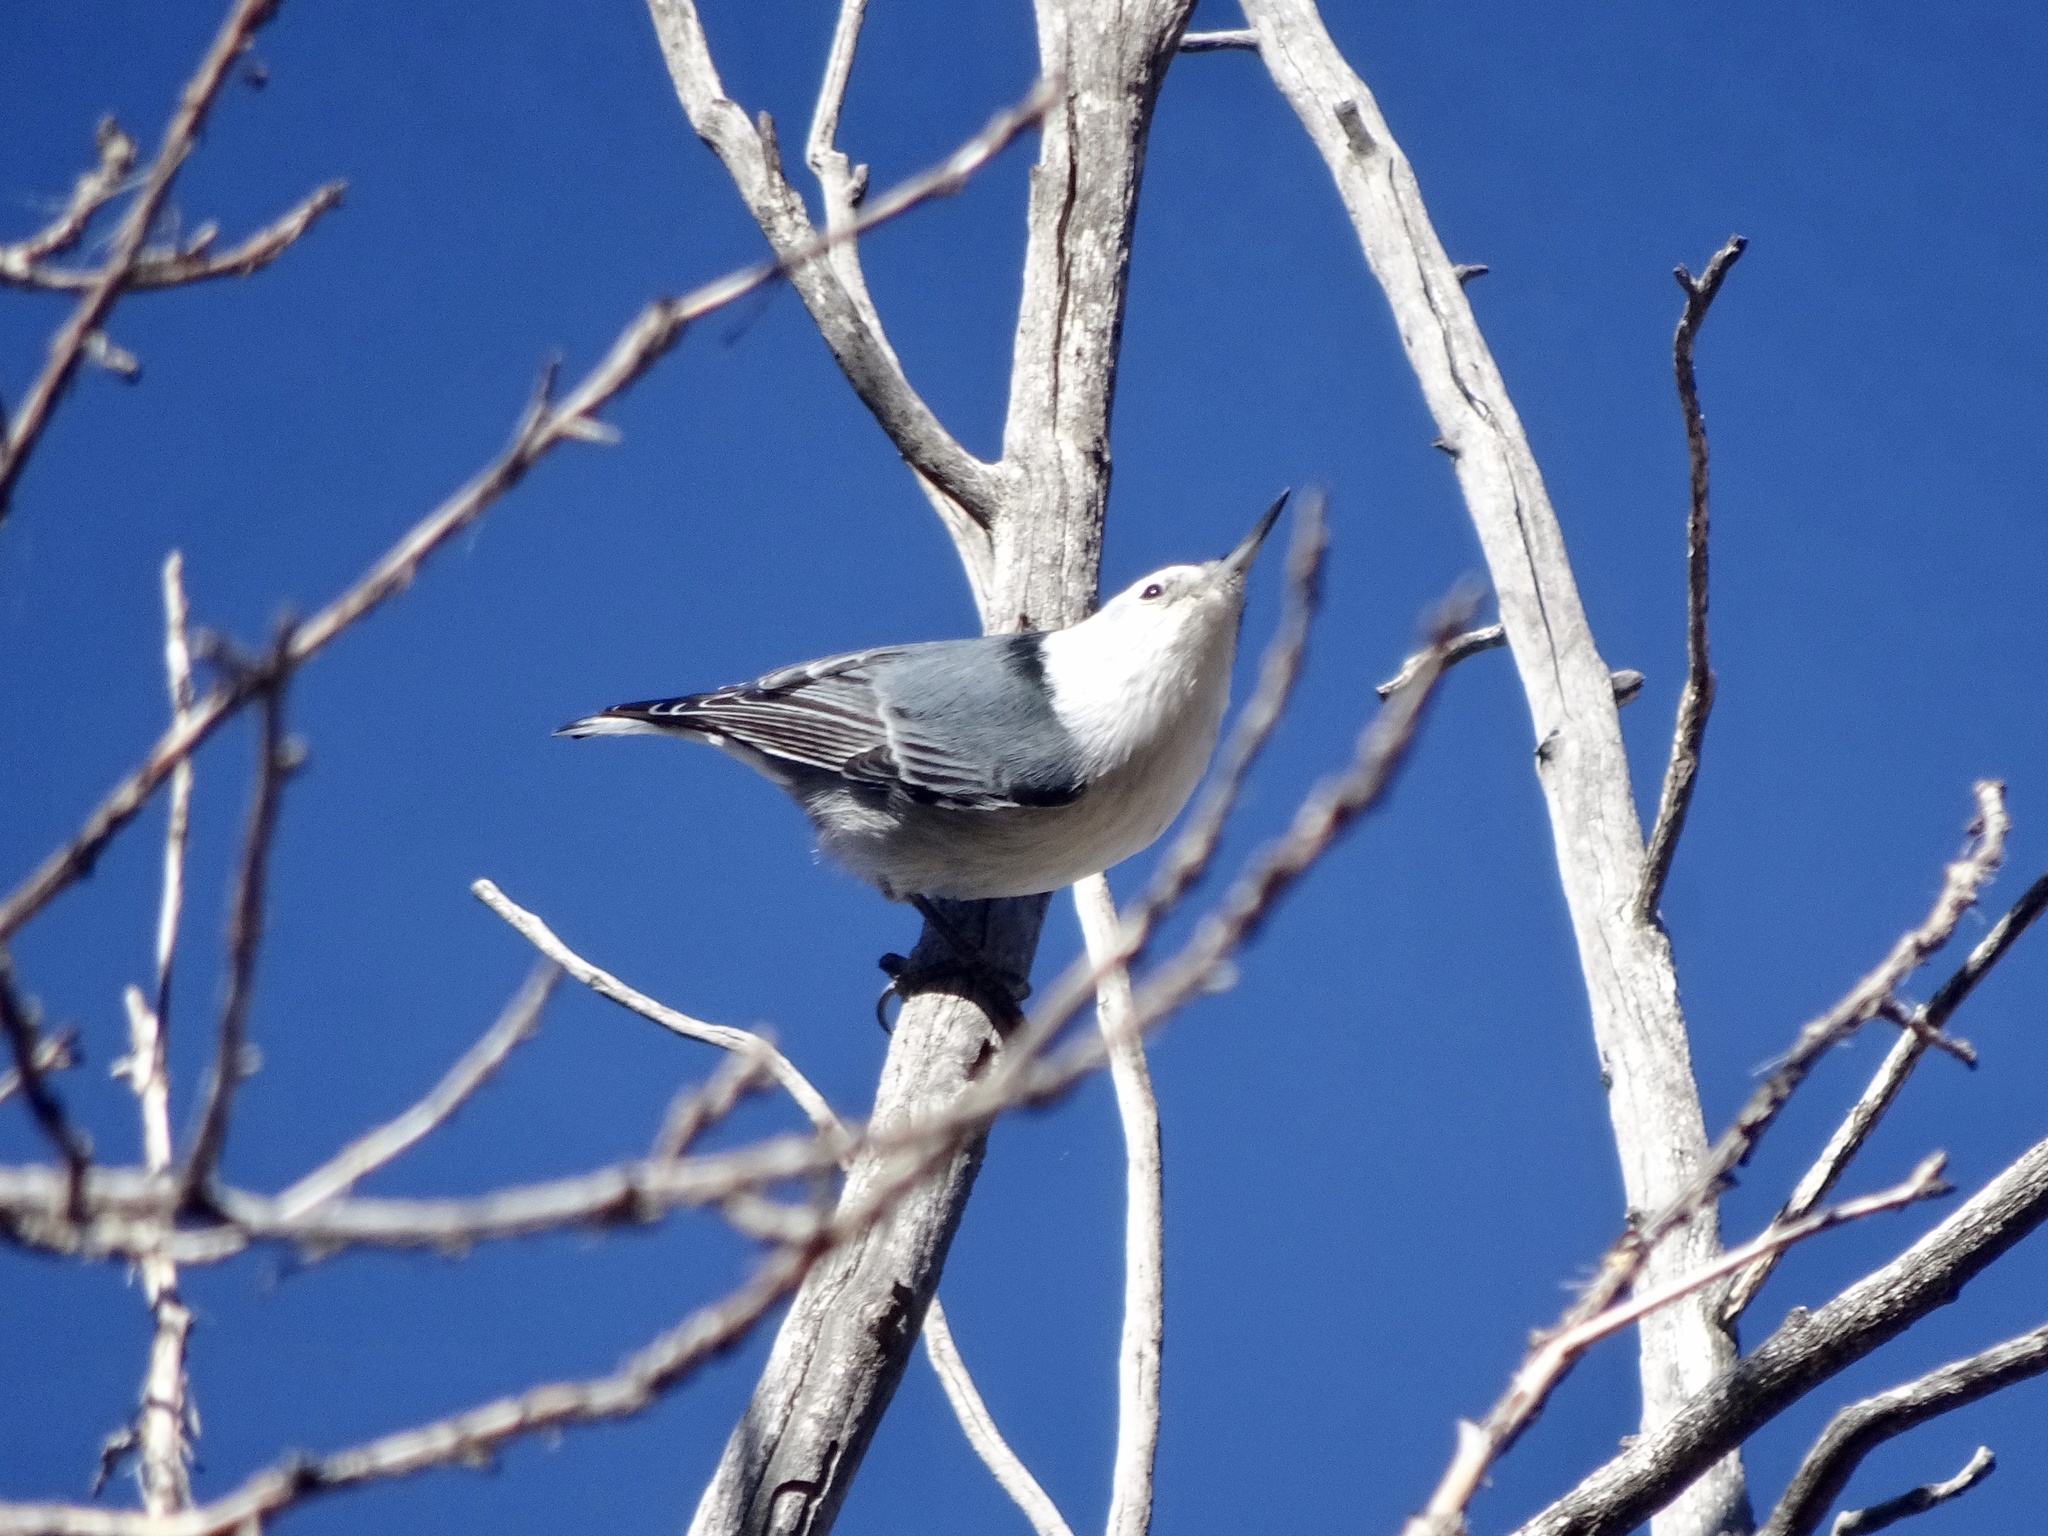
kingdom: Animalia
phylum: Chordata
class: Aves
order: Passeriformes
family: Sittidae
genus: Sitta
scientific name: Sitta carolinensis
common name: White-breasted nuthatch
